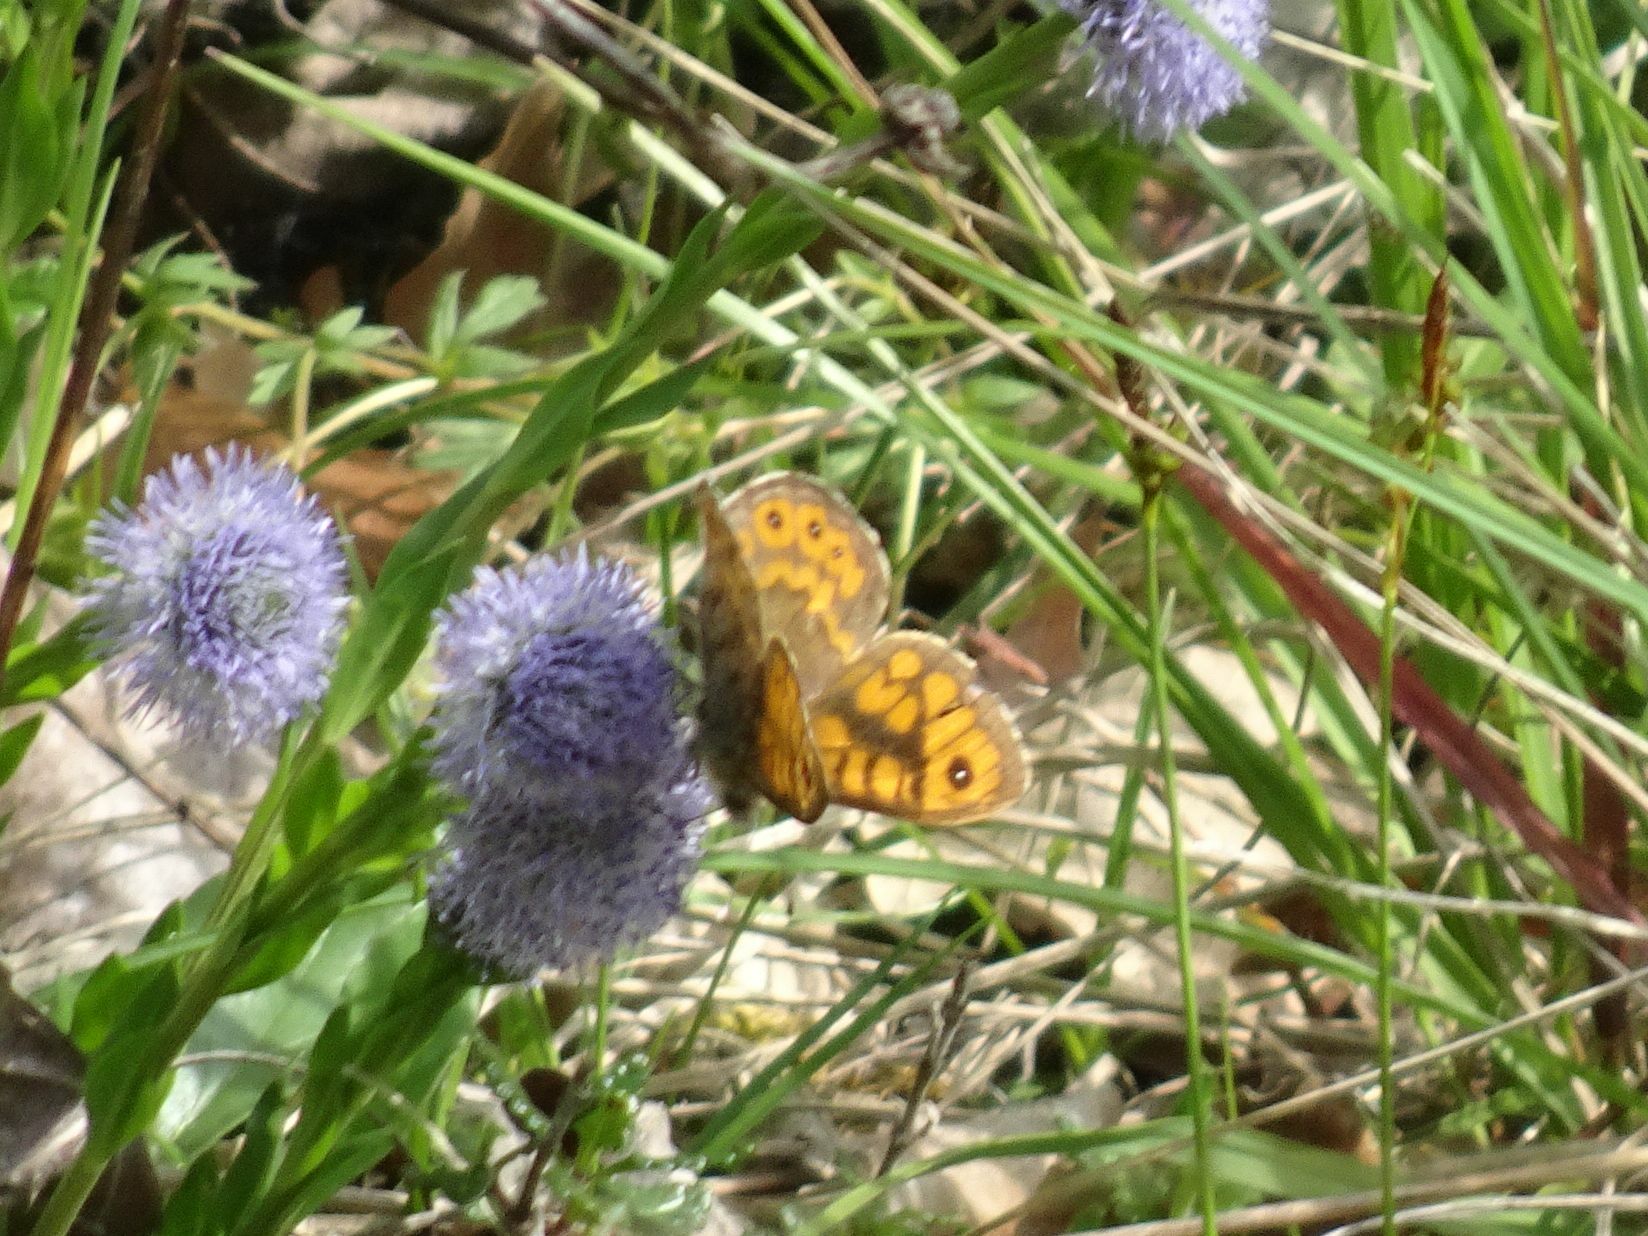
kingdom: Animalia
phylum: Arthropoda
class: Insecta
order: Lepidoptera
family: Nymphalidae
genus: Pararge
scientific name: Pararge Lasiommata megera
